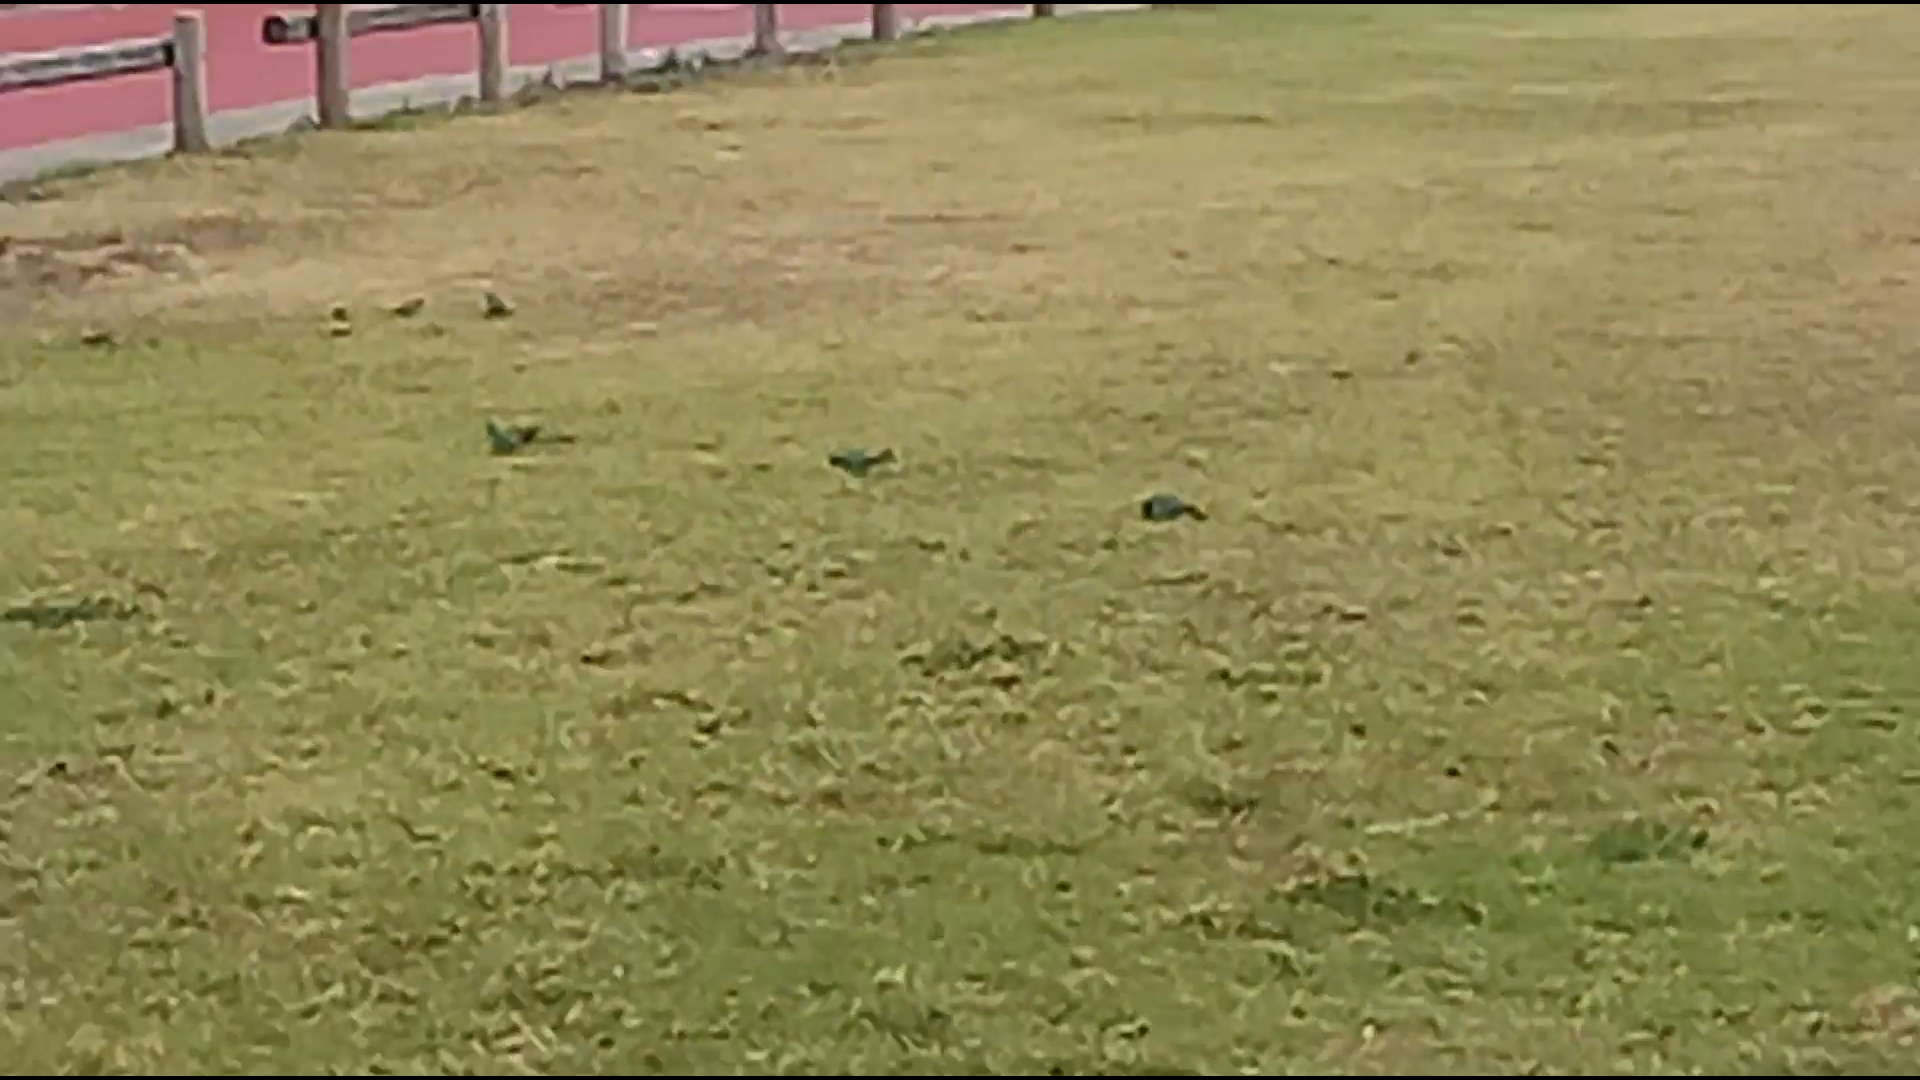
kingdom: Animalia
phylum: Chordata
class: Aves
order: Psittaciformes
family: Psittacidae
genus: Psephotus
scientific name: Psephotus haematonotus
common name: Red-rumped parrot
